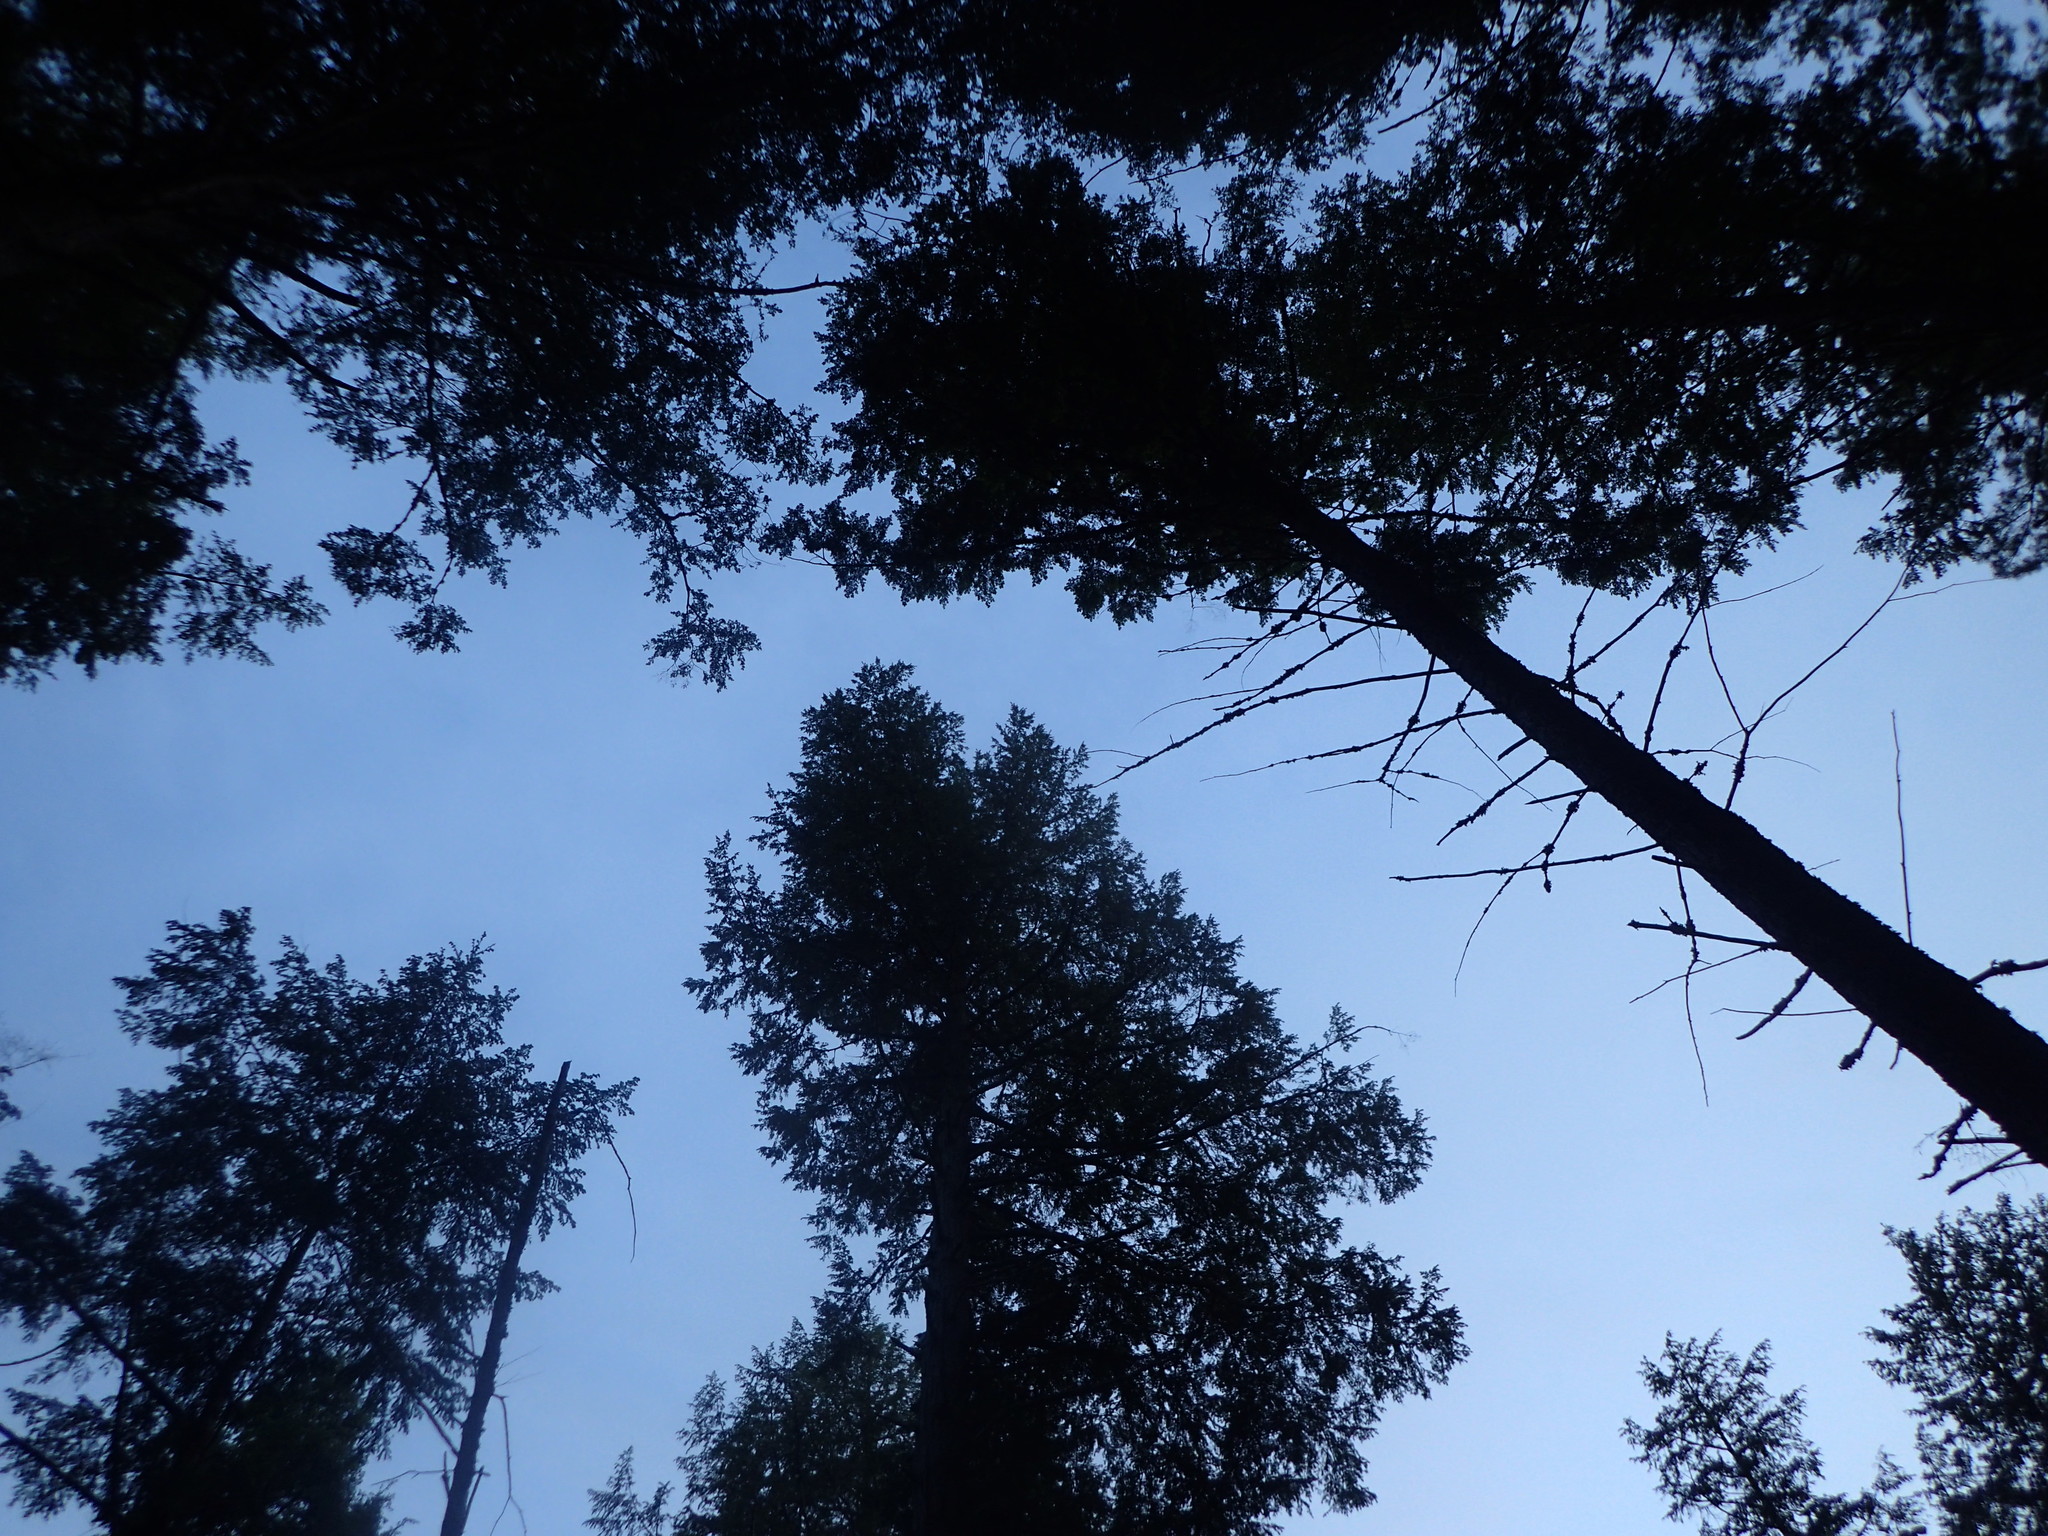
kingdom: Plantae
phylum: Tracheophyta
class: Pinopsida
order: Pinales
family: Pinaceae
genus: Tsuga
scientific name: Tsuga canadensis
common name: Eastern hemlock
